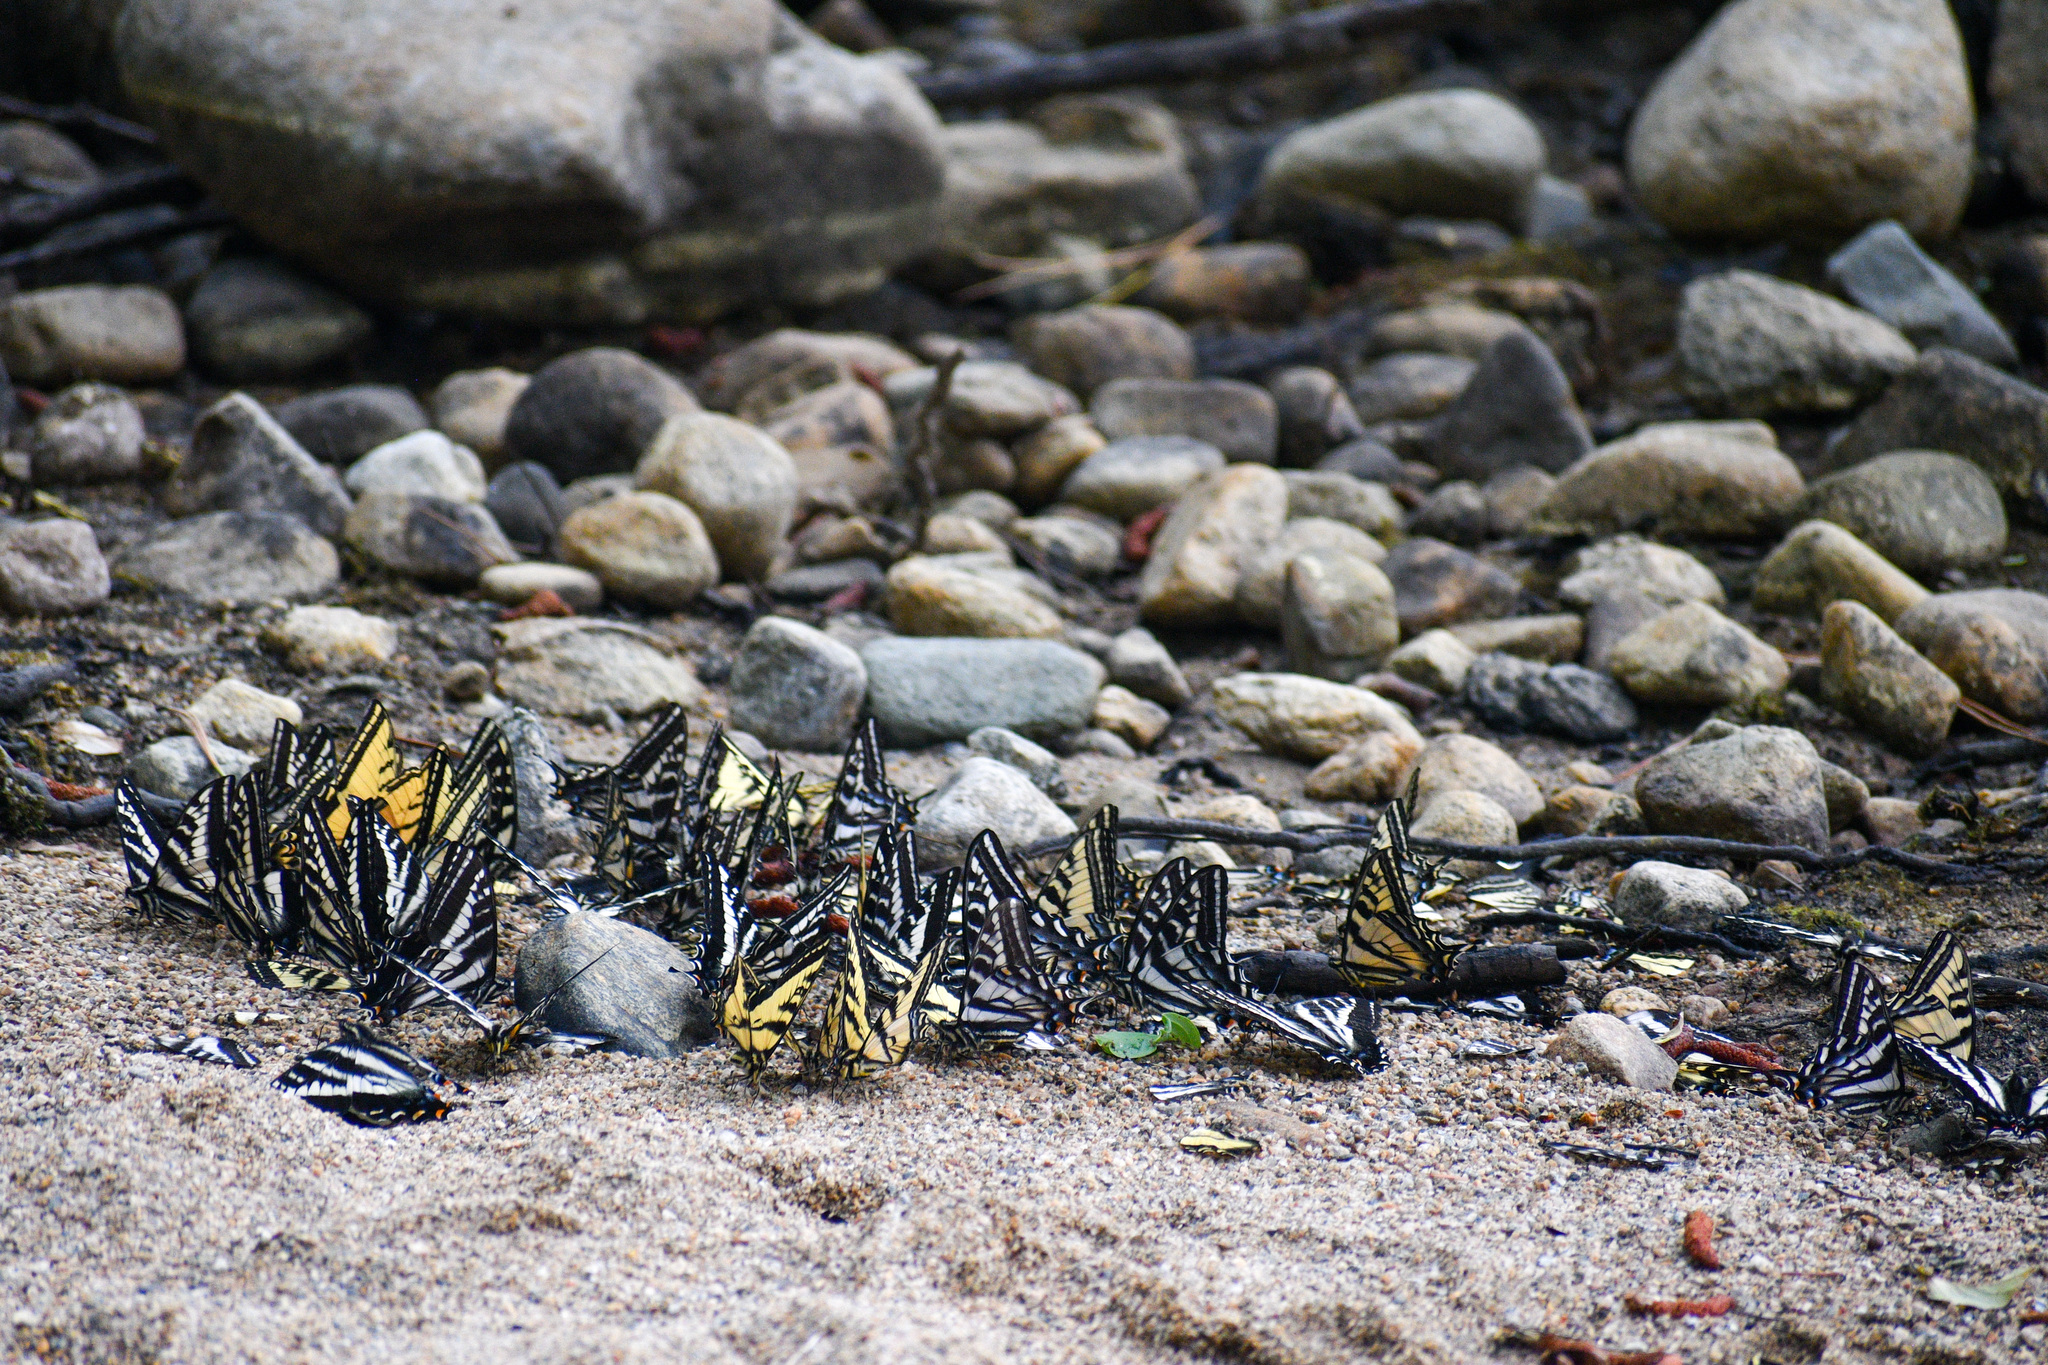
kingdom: Animalia
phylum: Arthropoda
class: Insecta
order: Lepidoptera
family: Papilionidae
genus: Papilio
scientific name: Papilio eurymedon
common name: Pale tiger swallowtail
